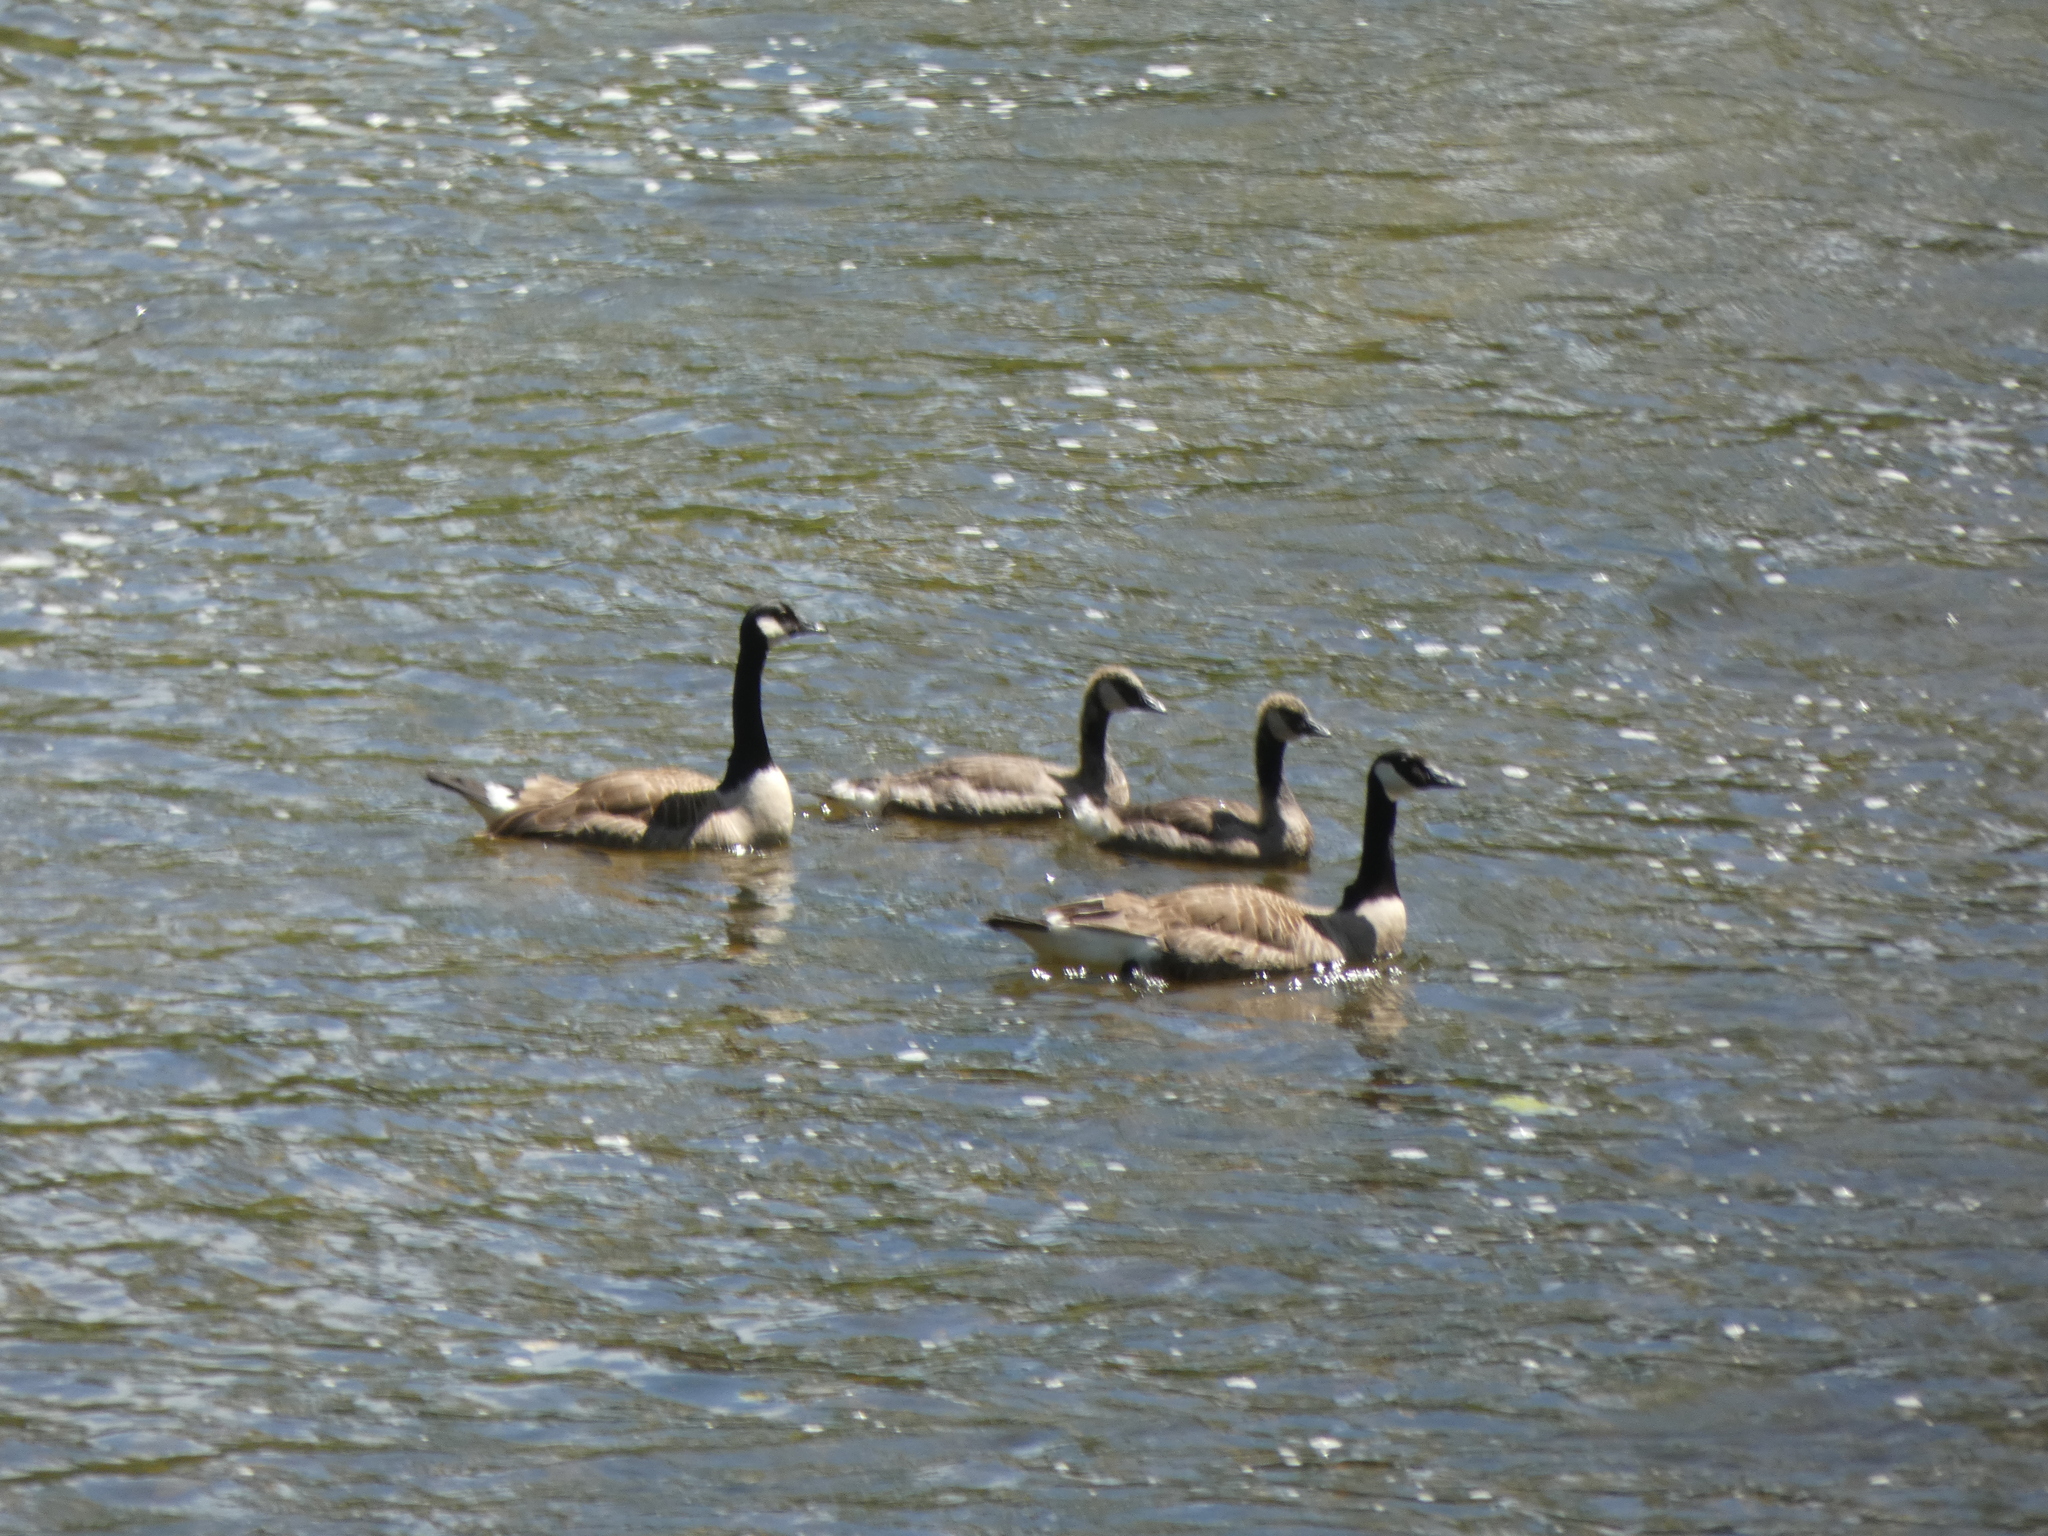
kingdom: Animalia
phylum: Chordata
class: Aves
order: Anseriformes
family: Anatidae
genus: Branta
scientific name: Branta canadensis
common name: Canada goose
